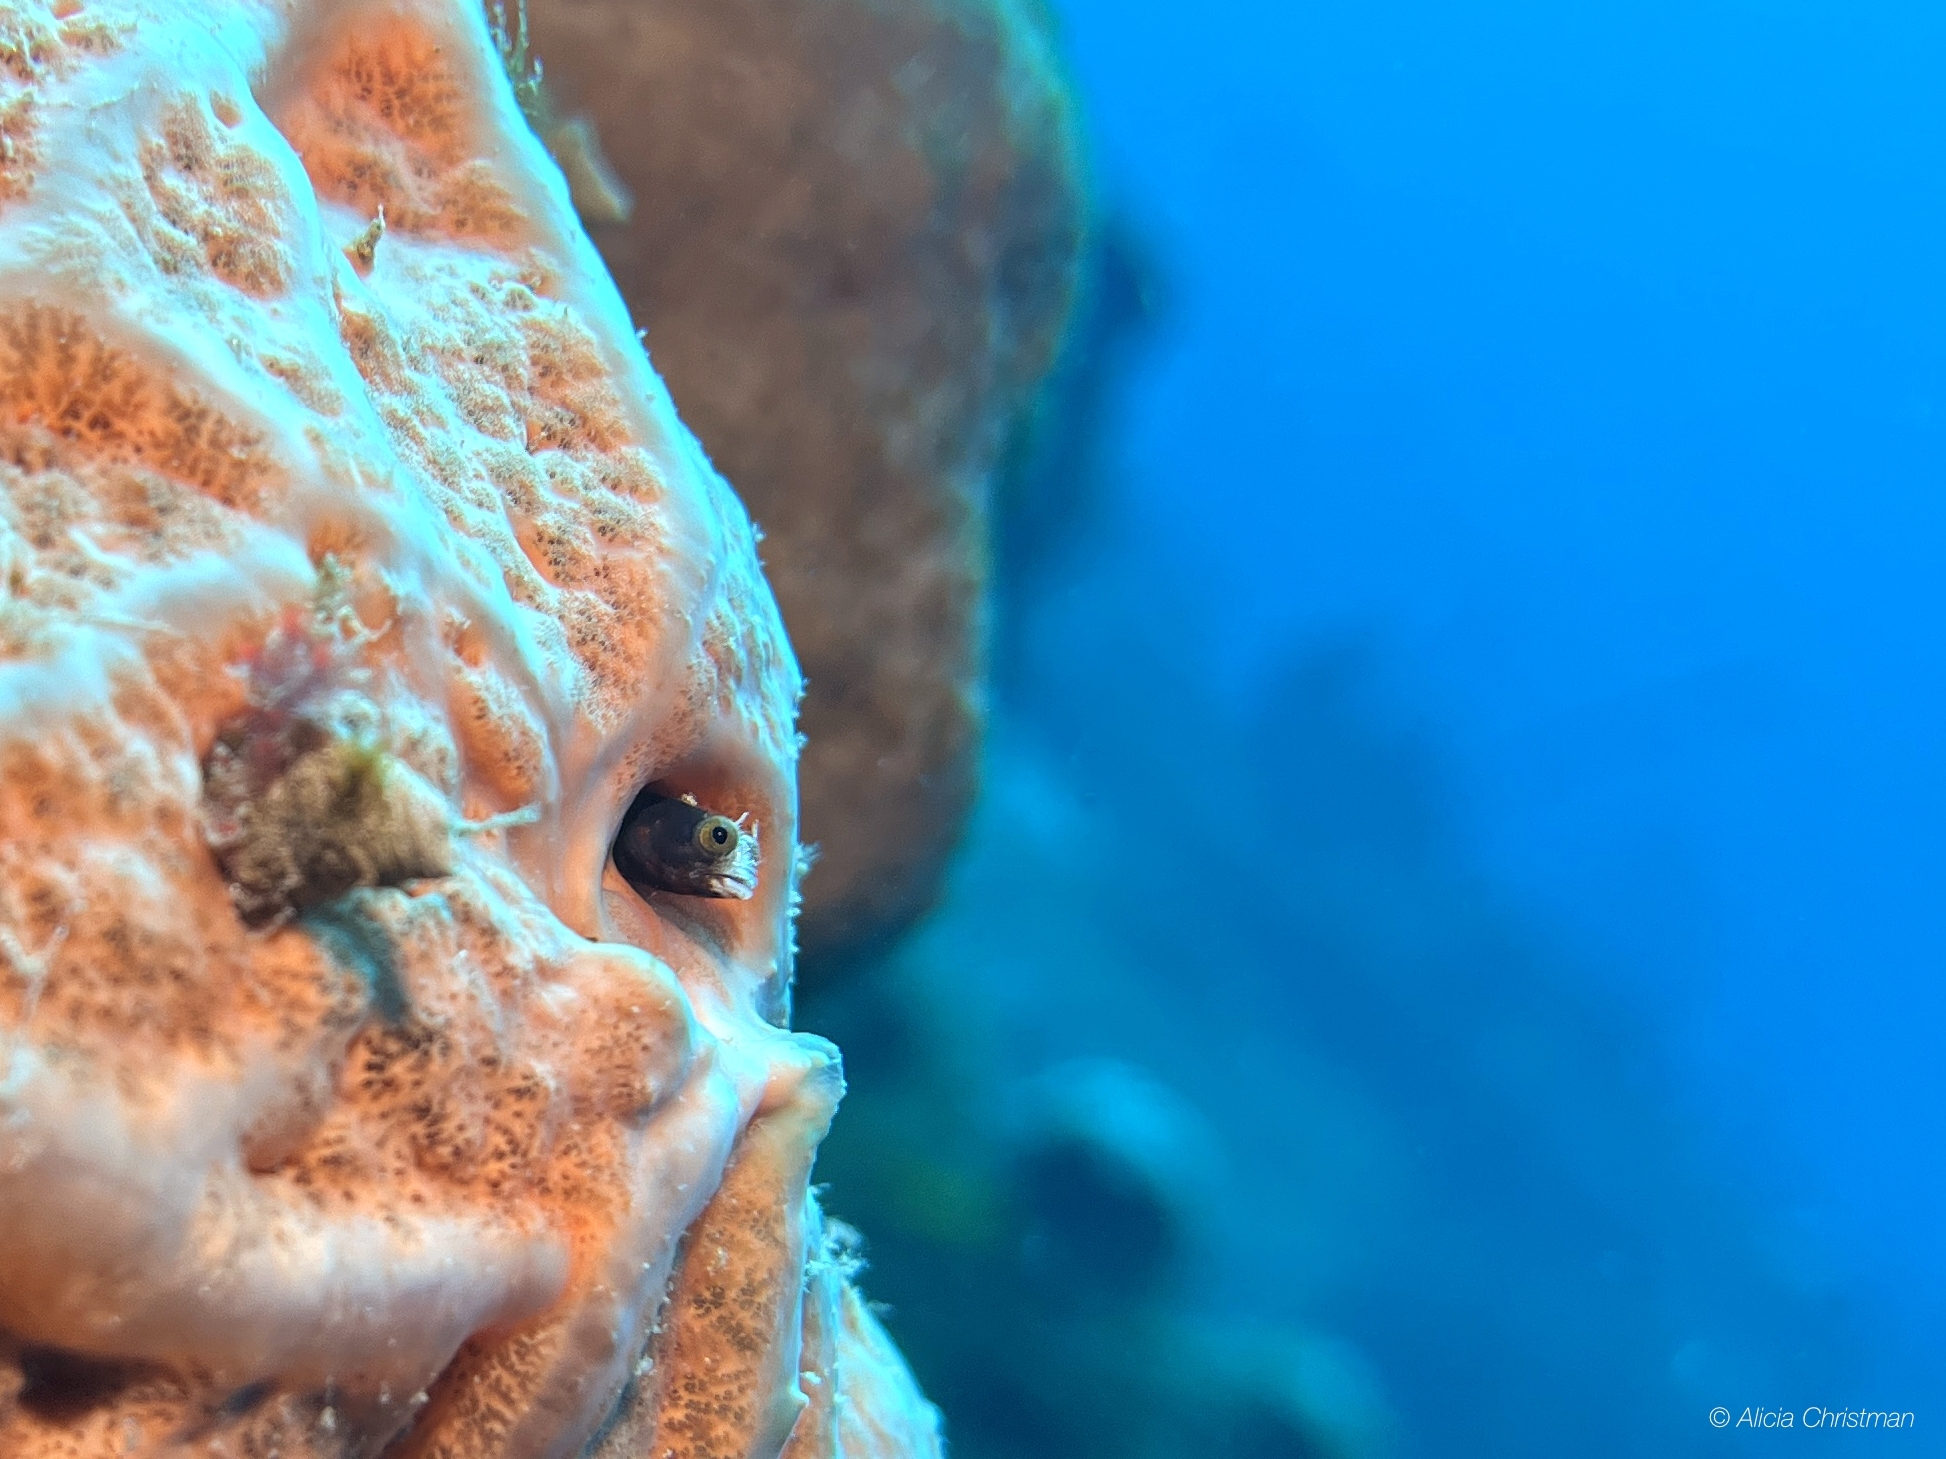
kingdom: Animalia
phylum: Chordata
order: Perciformes
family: Chaenopsidae
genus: Acanthemblemaria
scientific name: Acanthemblemaria spinosa
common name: Spinyhead blenny
